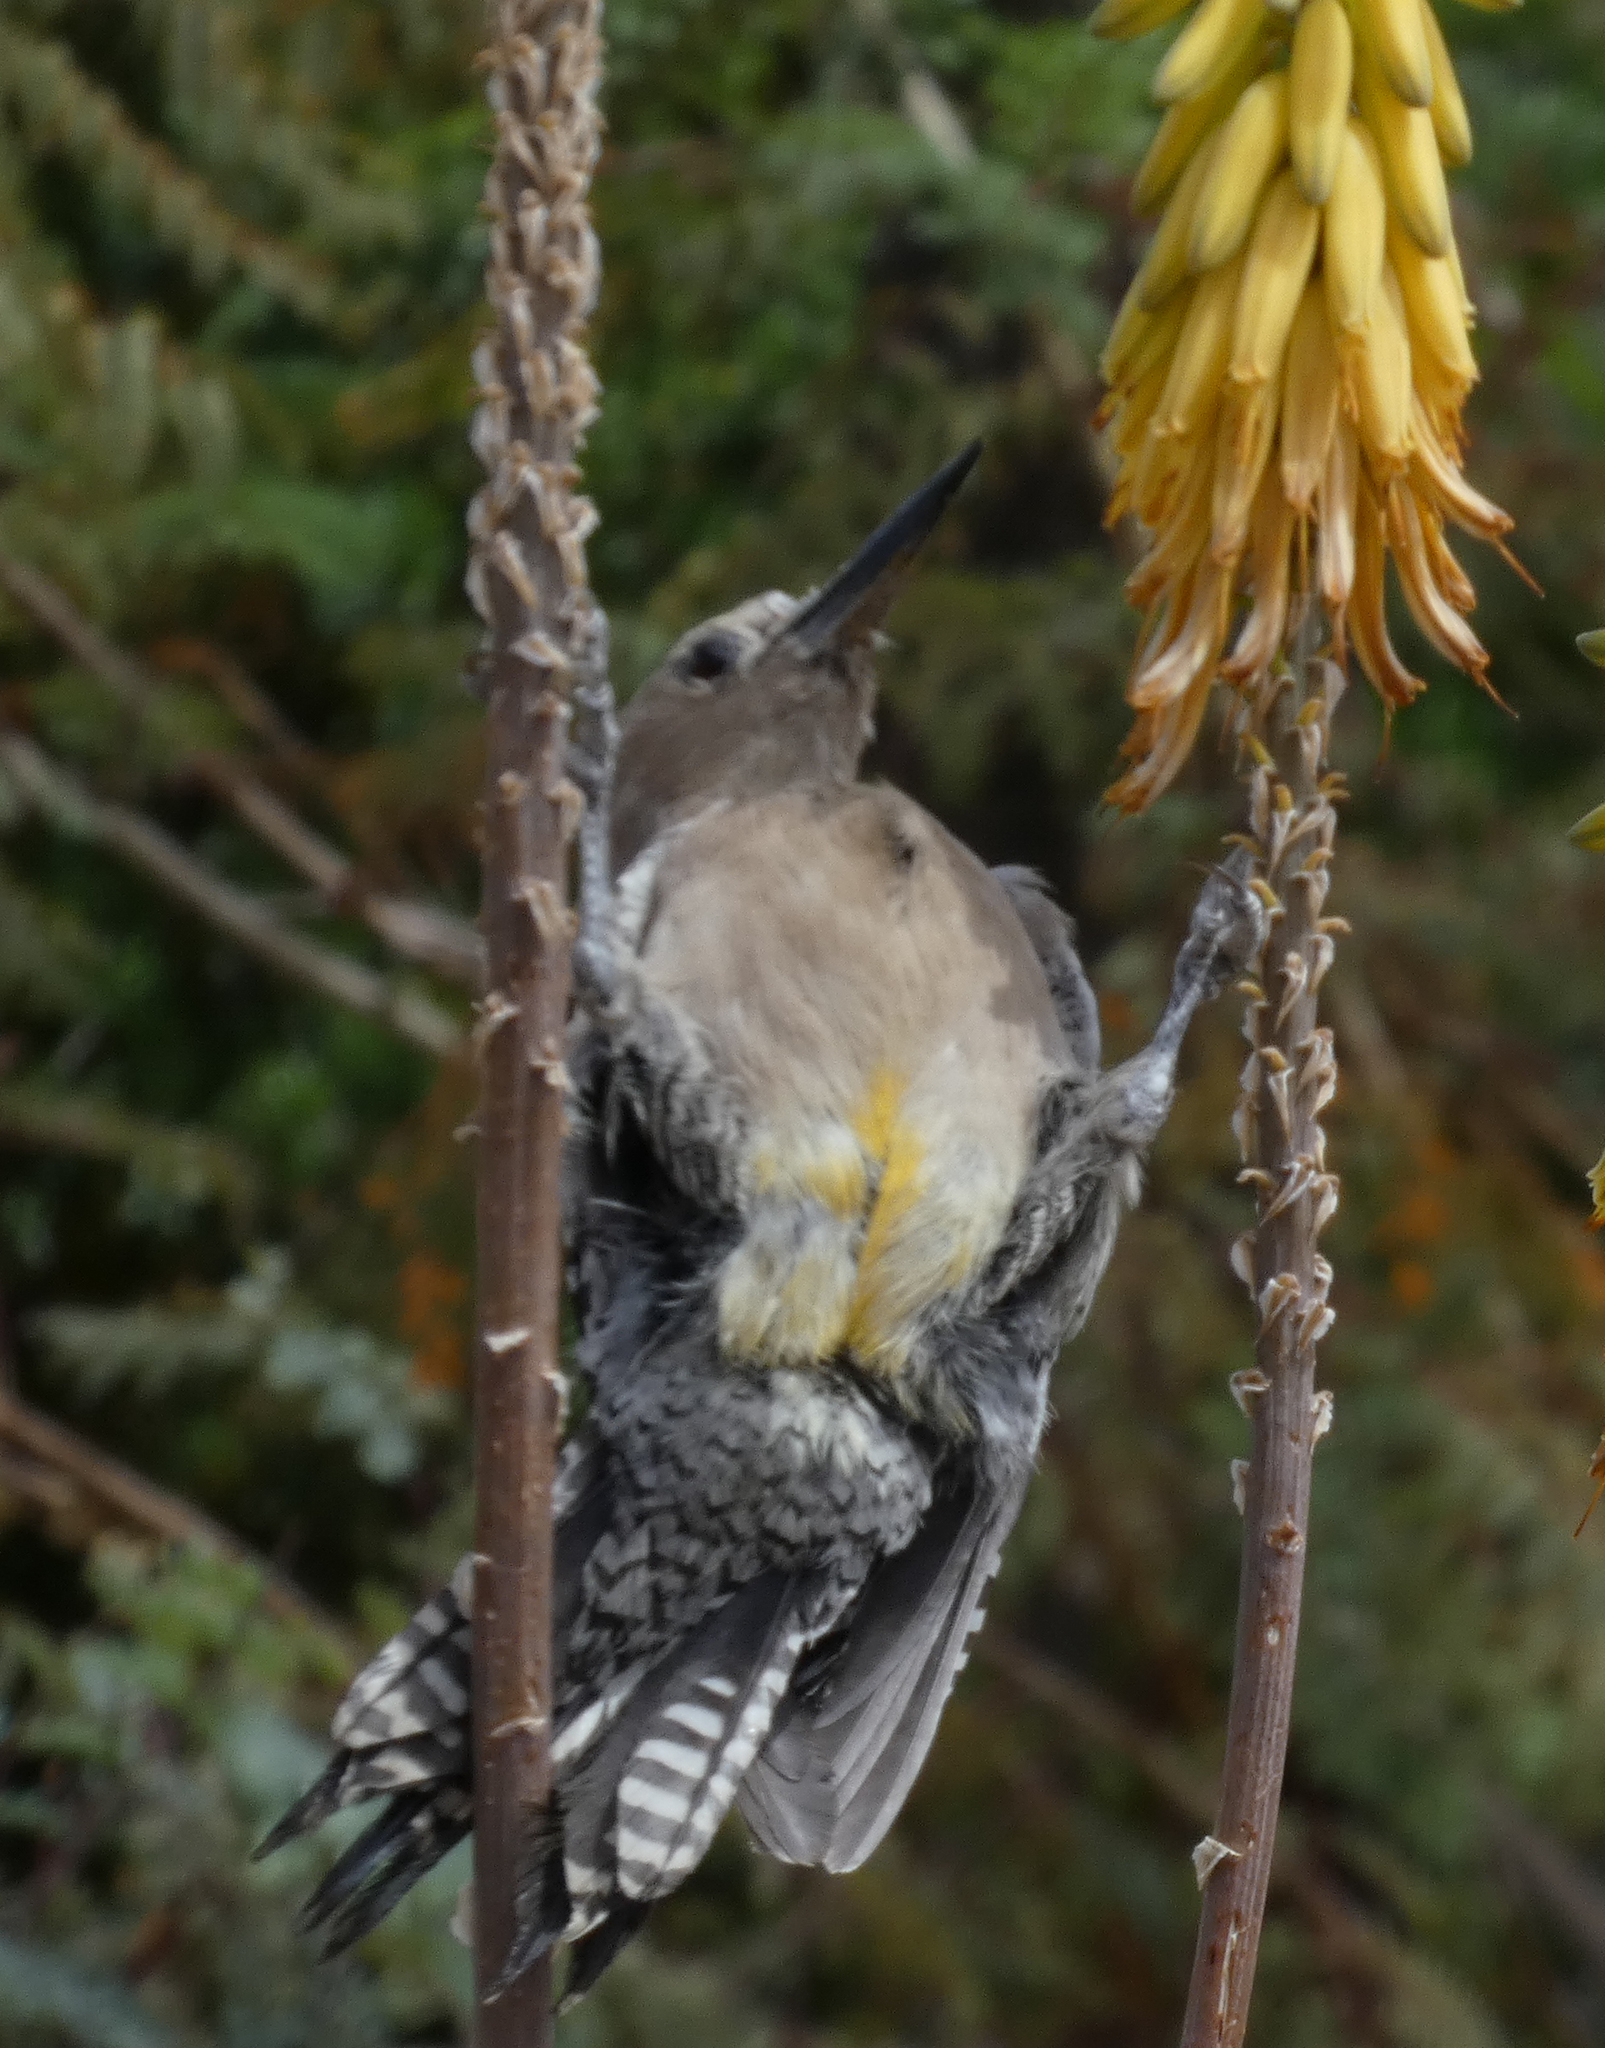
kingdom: Animalia
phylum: Chordata
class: Aves
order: Piciformes
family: Picidae
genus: Melanerpes
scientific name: Melanerpes uropygialis
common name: Gila woodpecker
